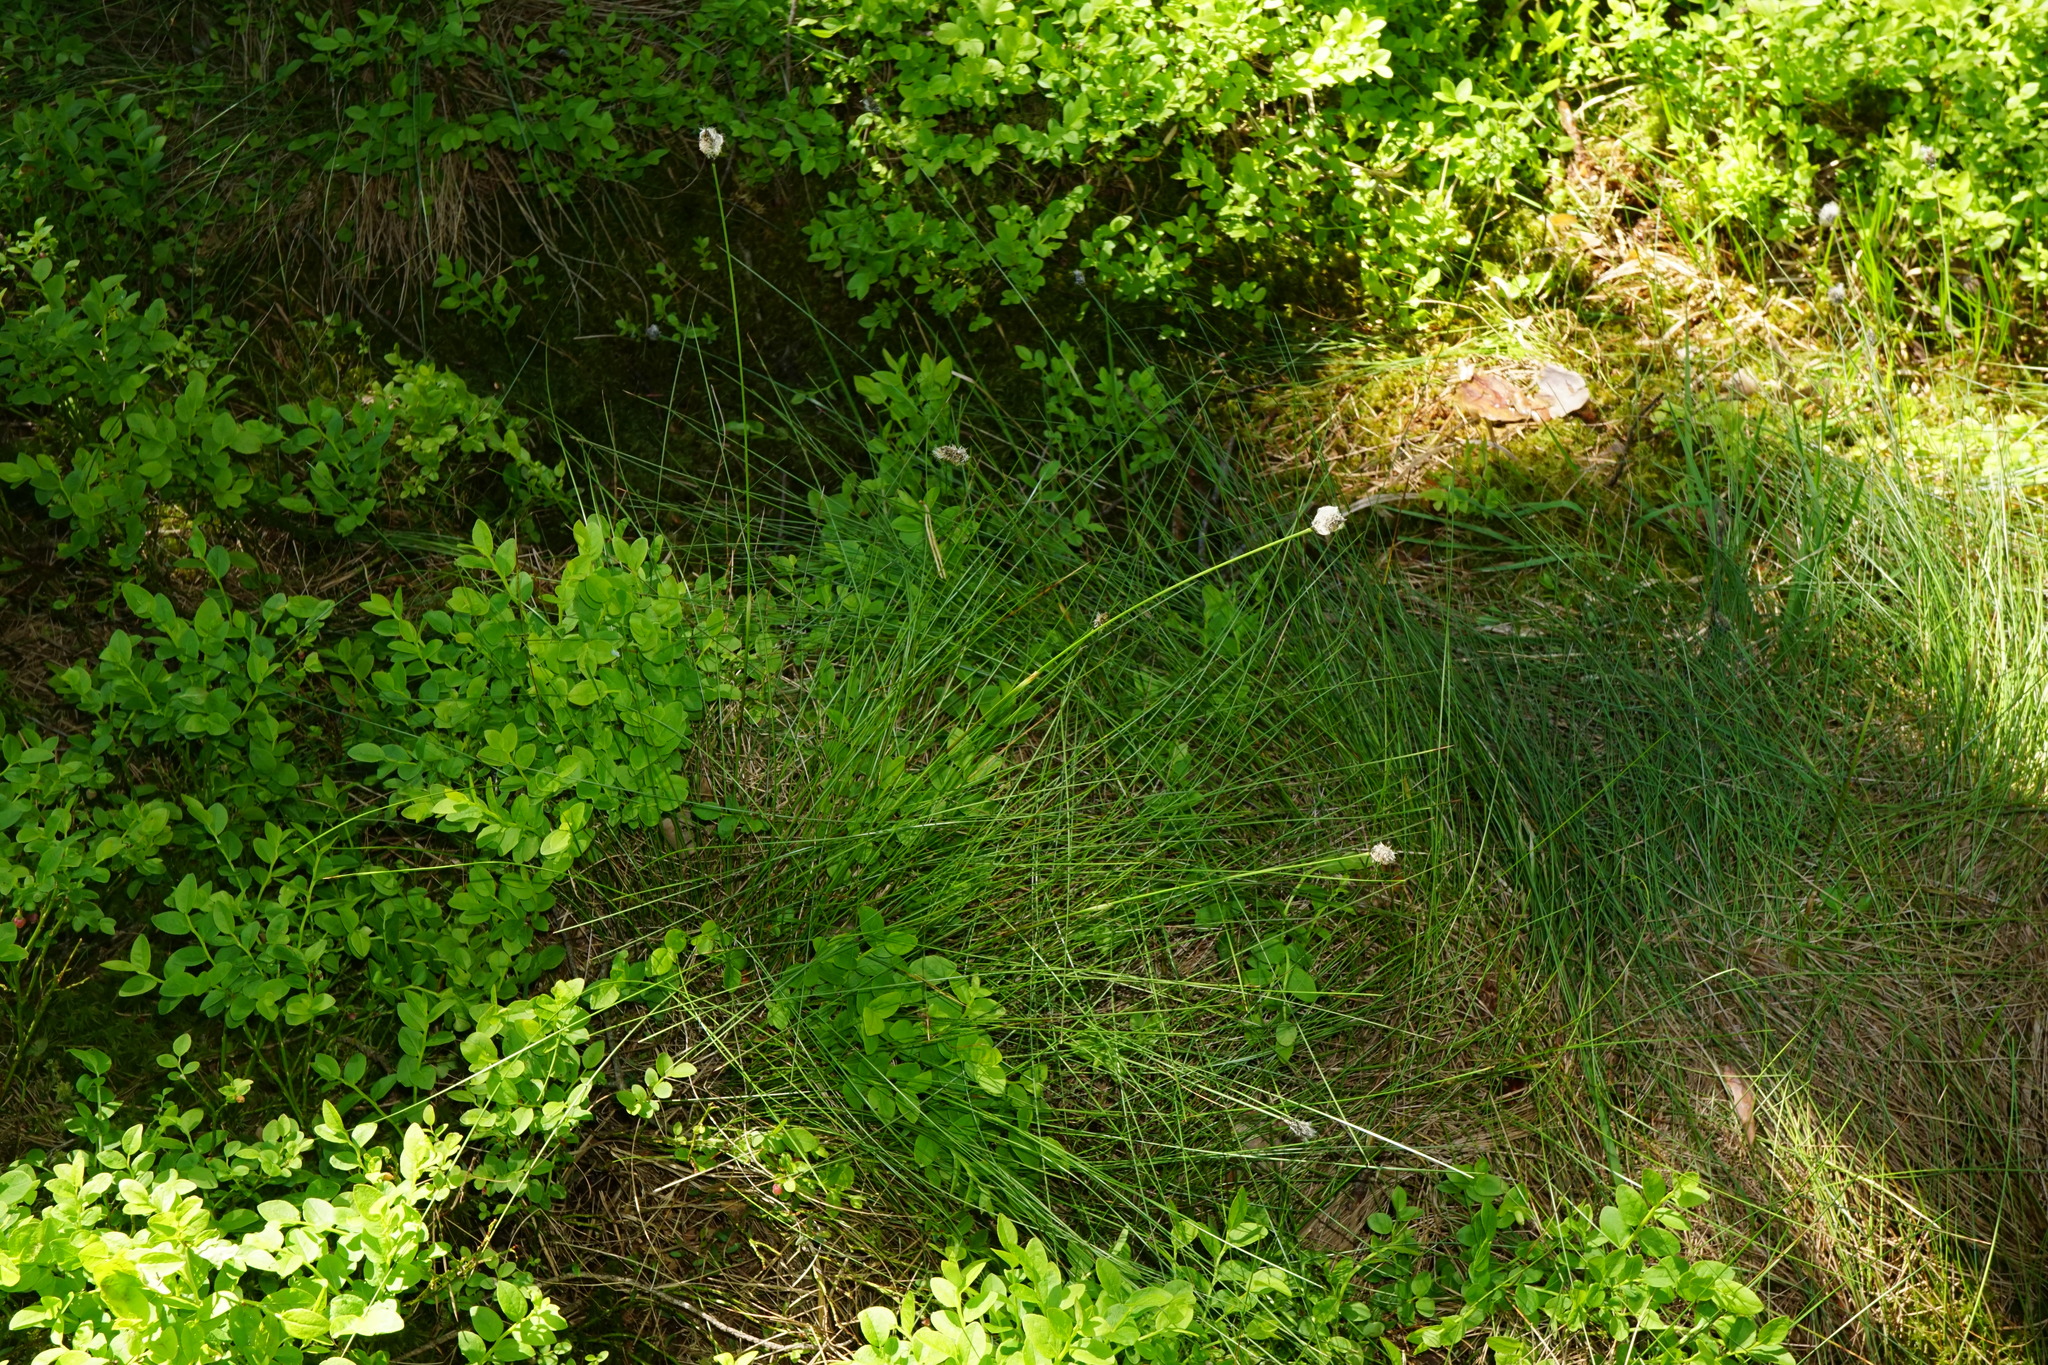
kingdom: Plantae
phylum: Tracheophyta
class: Liliopsida
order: Poales
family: Cyperaceae
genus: Eriophorum
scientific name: Eriophorum vaginatum
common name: Hare's-tail cottongrass
